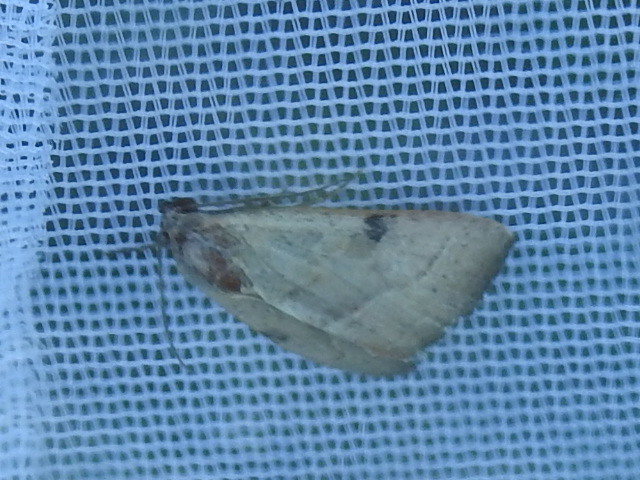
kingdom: Animalia
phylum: Arthropoda
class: Insecta
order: Lepidoptera
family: Noctuidae
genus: Galgula
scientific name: Galgula partita
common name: Wedgeling
